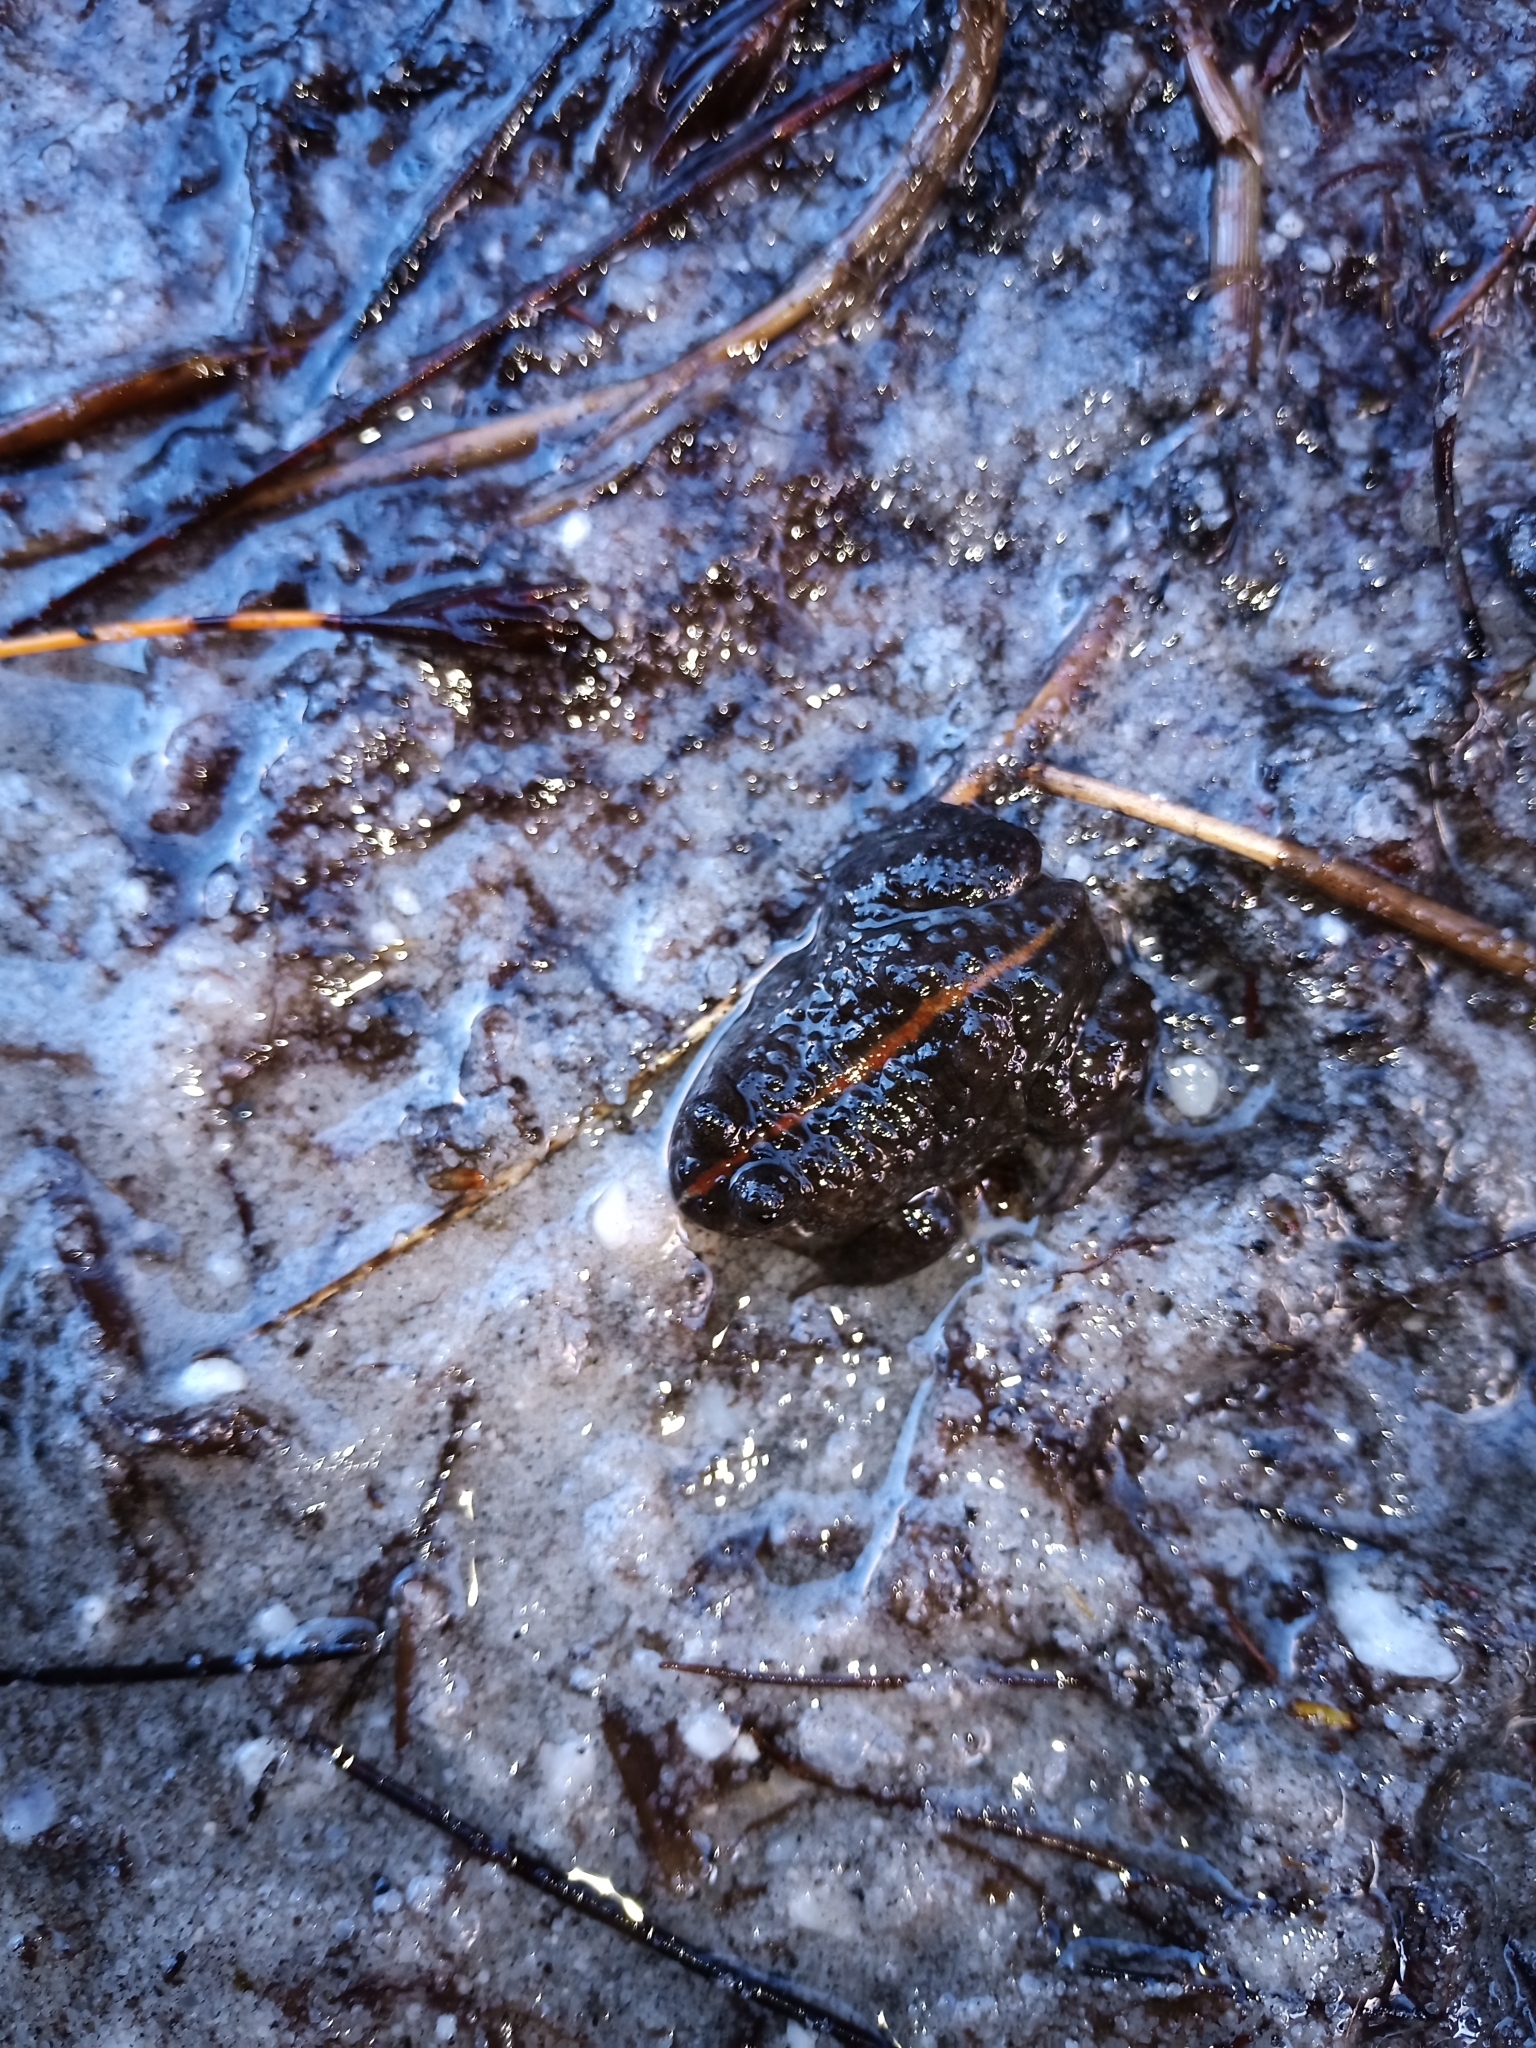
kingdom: Animalia
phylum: Chordata
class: Amphibia
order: Anura
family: Pyxicephalidae
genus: Poyntonia
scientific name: Poyntonia paludicola
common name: Montane marsh frog
